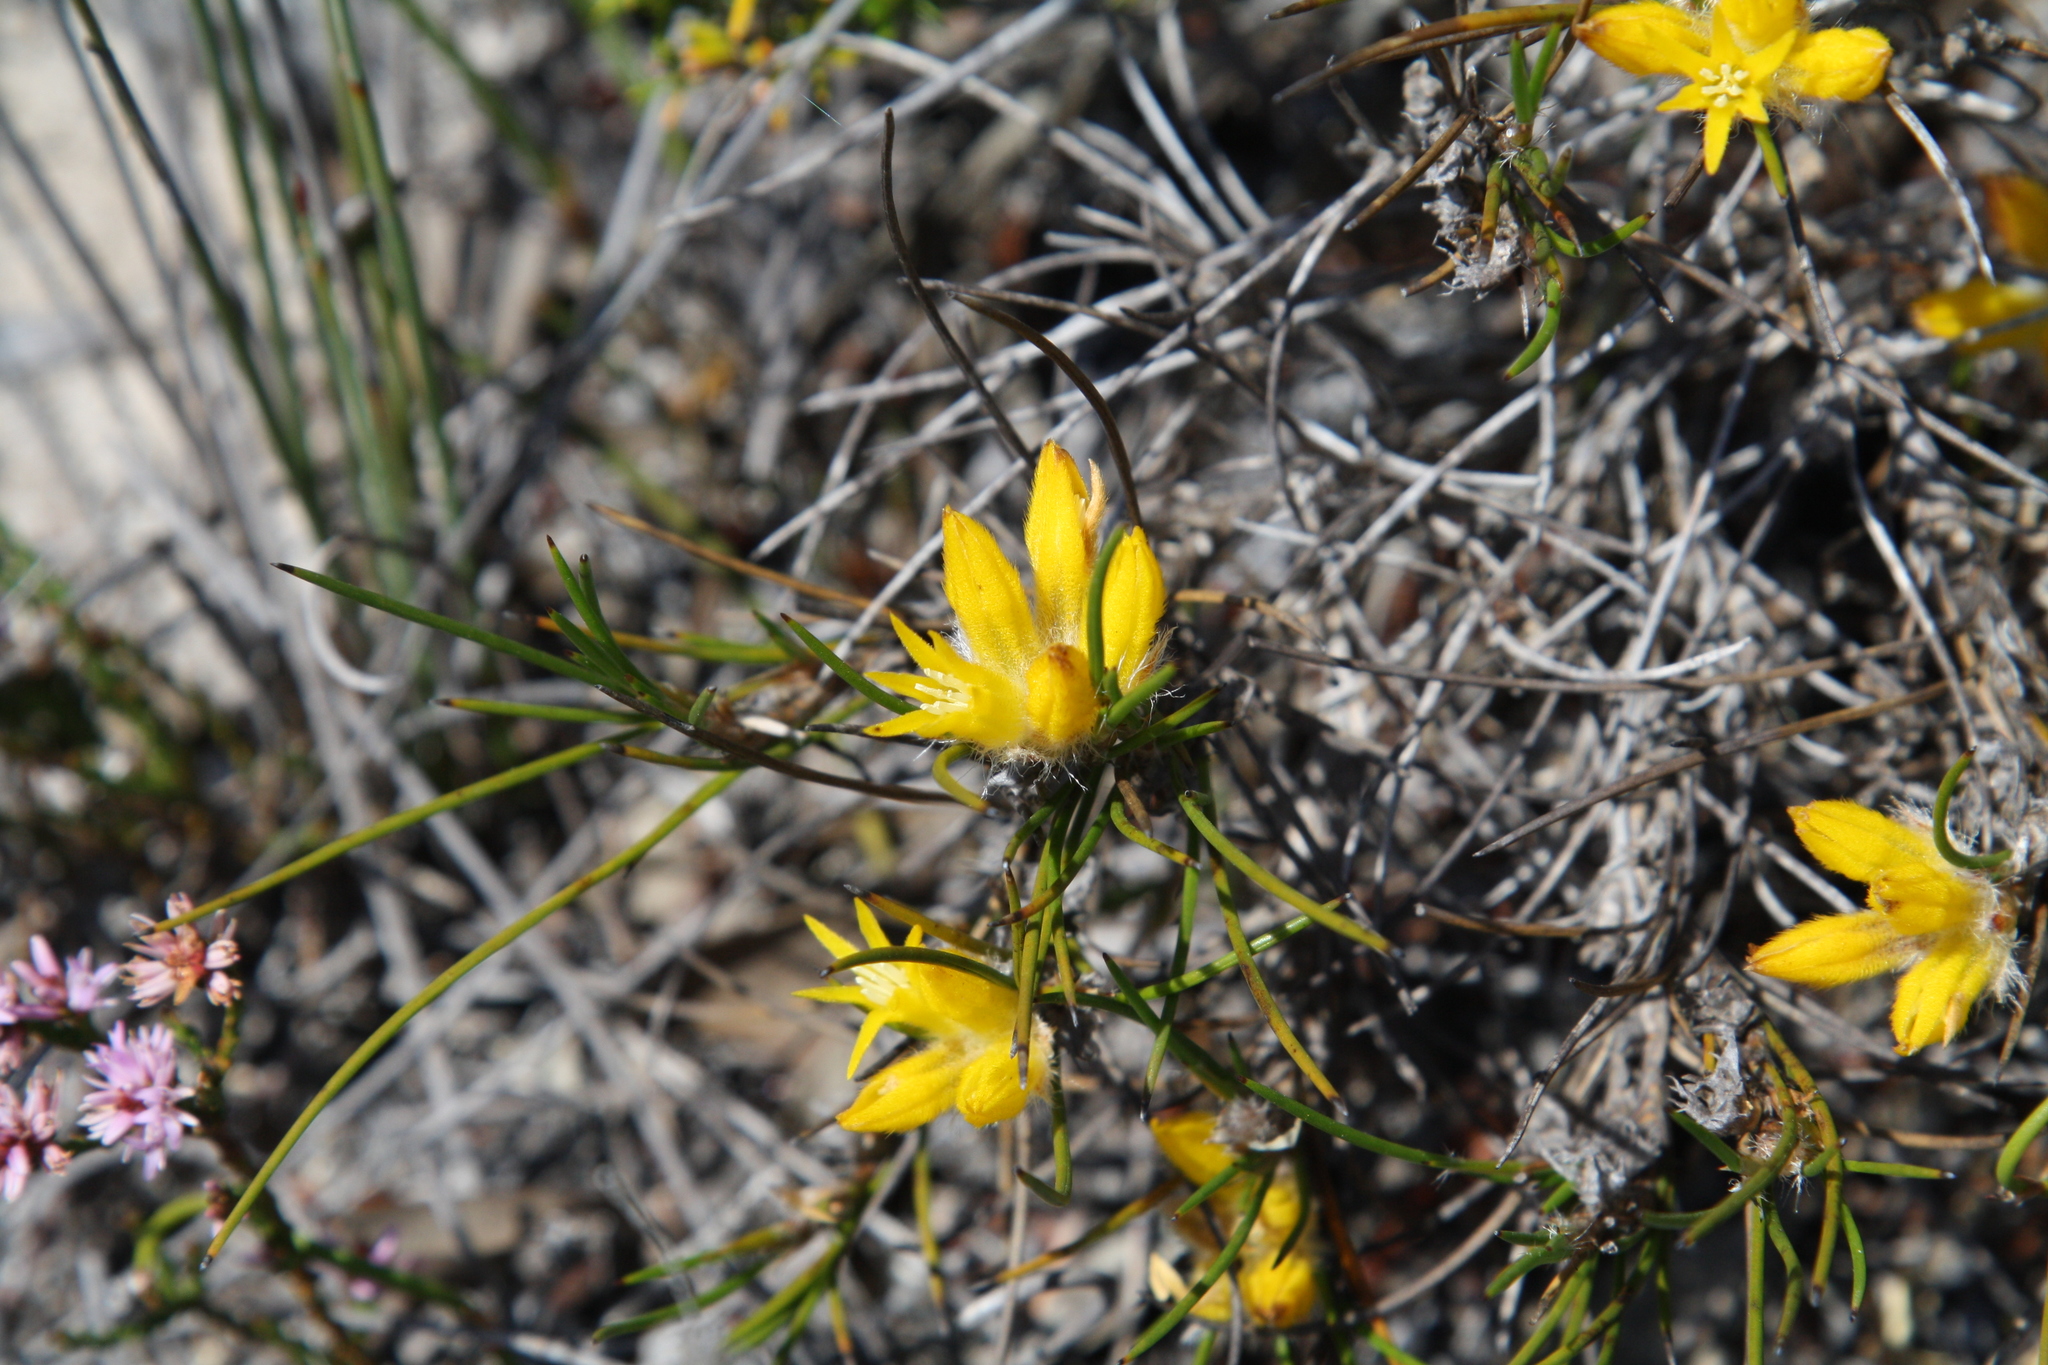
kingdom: Plantae
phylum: Tracheophyta
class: Liliopsida
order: Commelinales
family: Haemodoraceae
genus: Conostylis
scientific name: Conostylis vaginata
